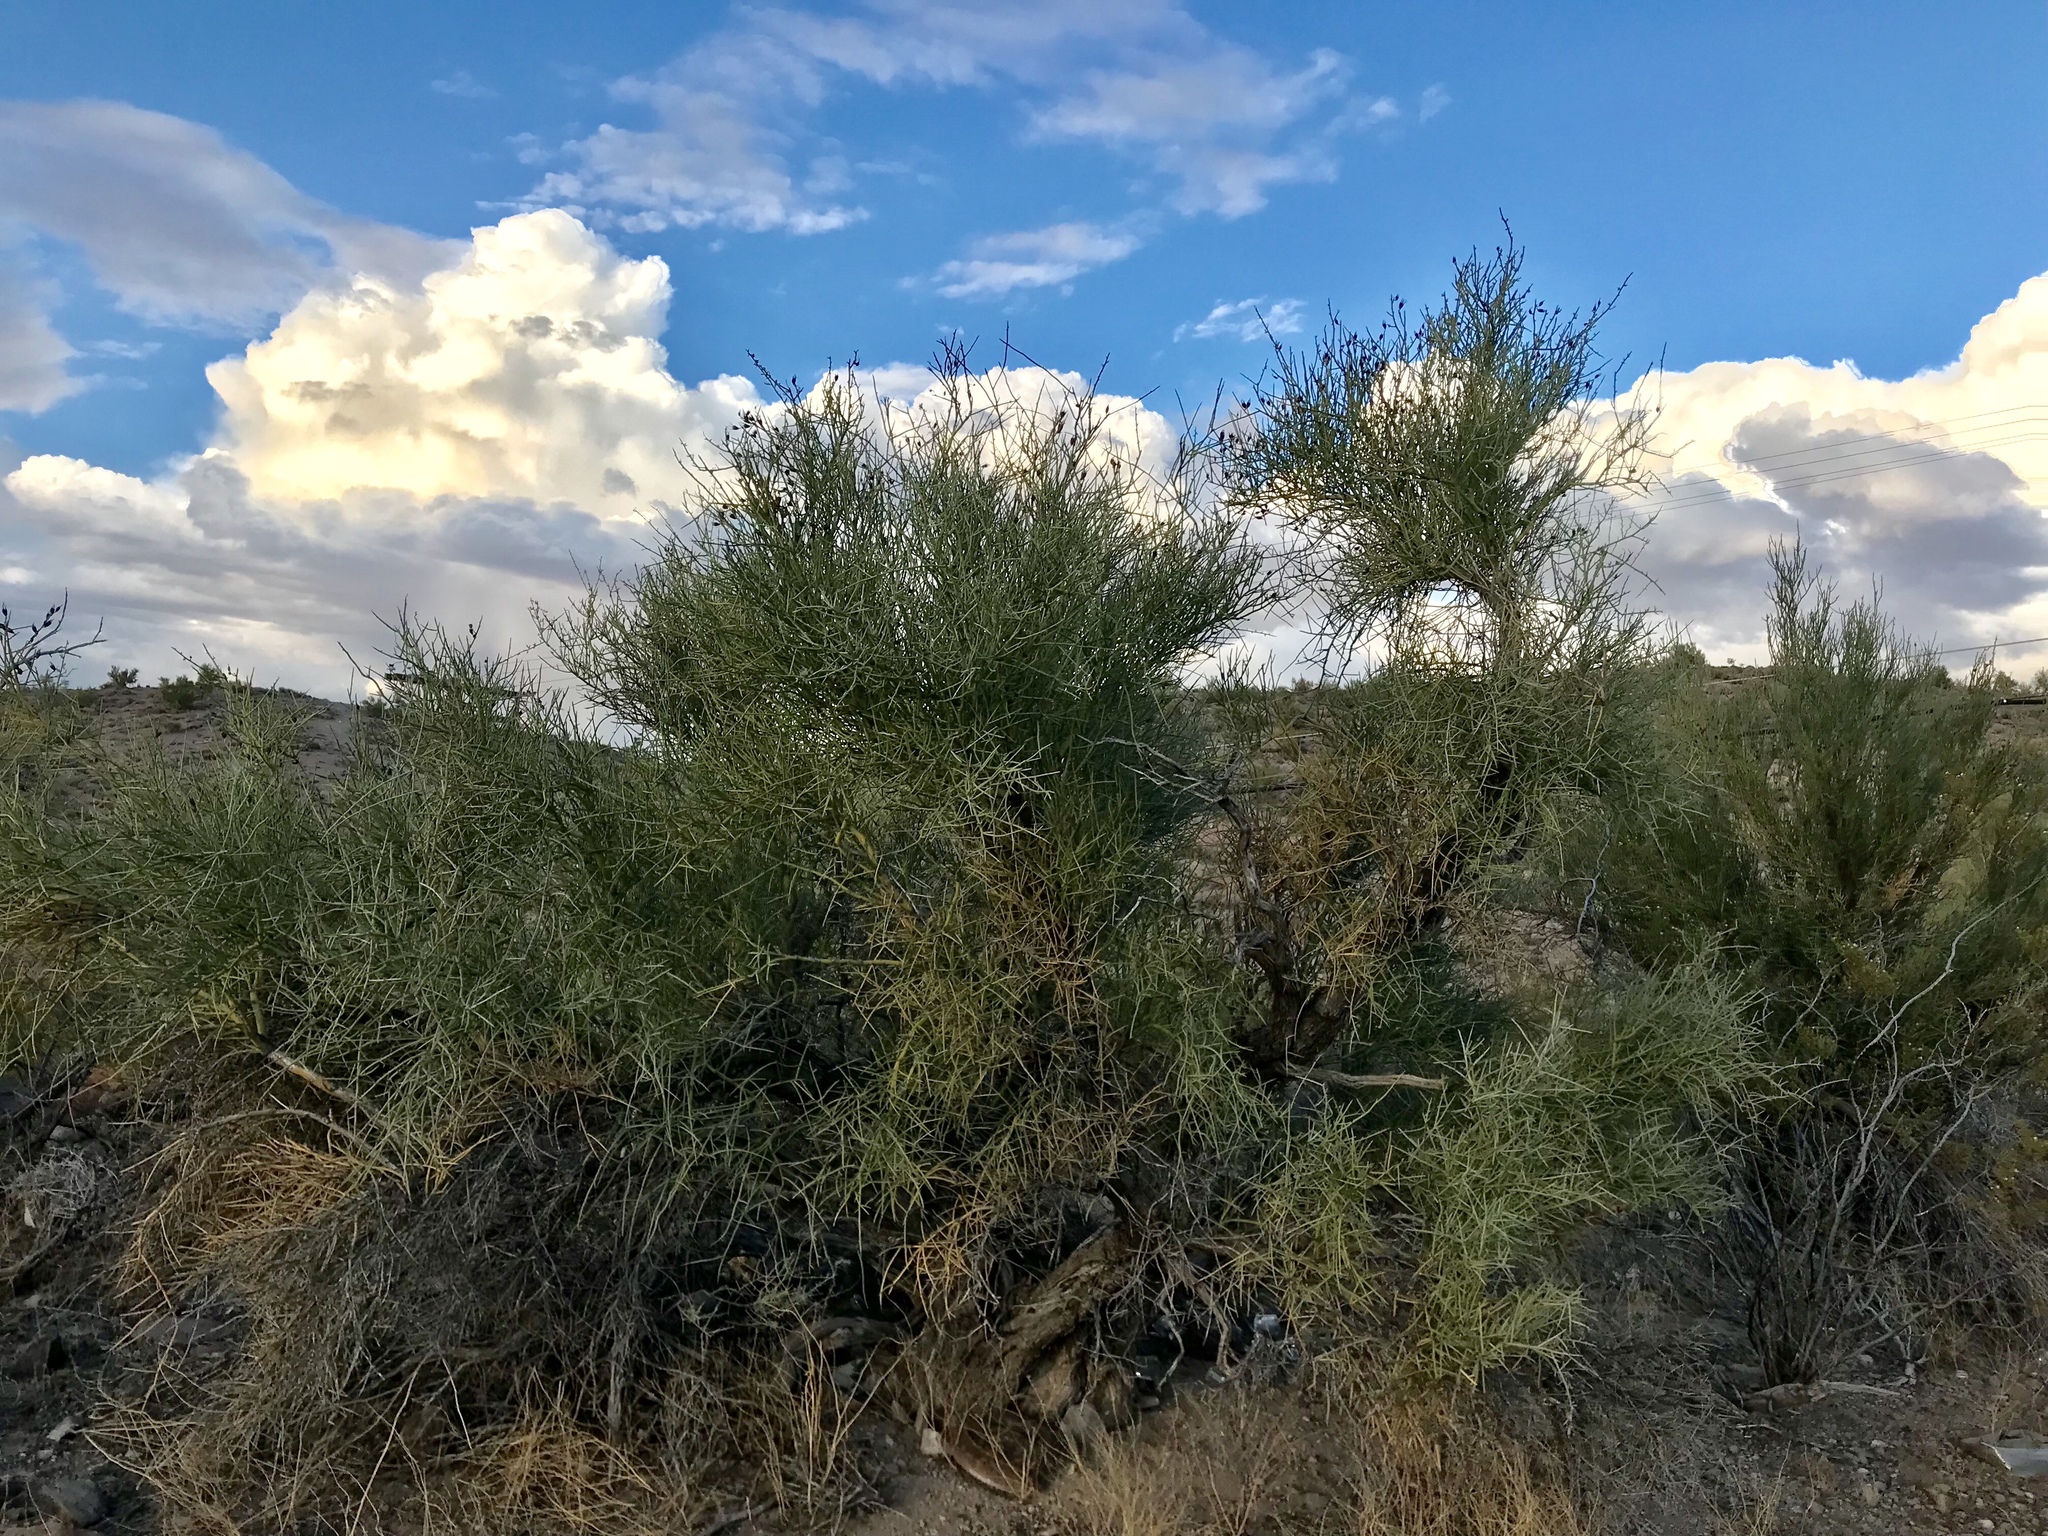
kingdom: Plantae
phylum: Tracheophyta
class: Magnoliopsida
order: Celastrales
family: Celastraceae
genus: Canotia
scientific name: Canotia holacantha
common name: Crucifixion thorns
